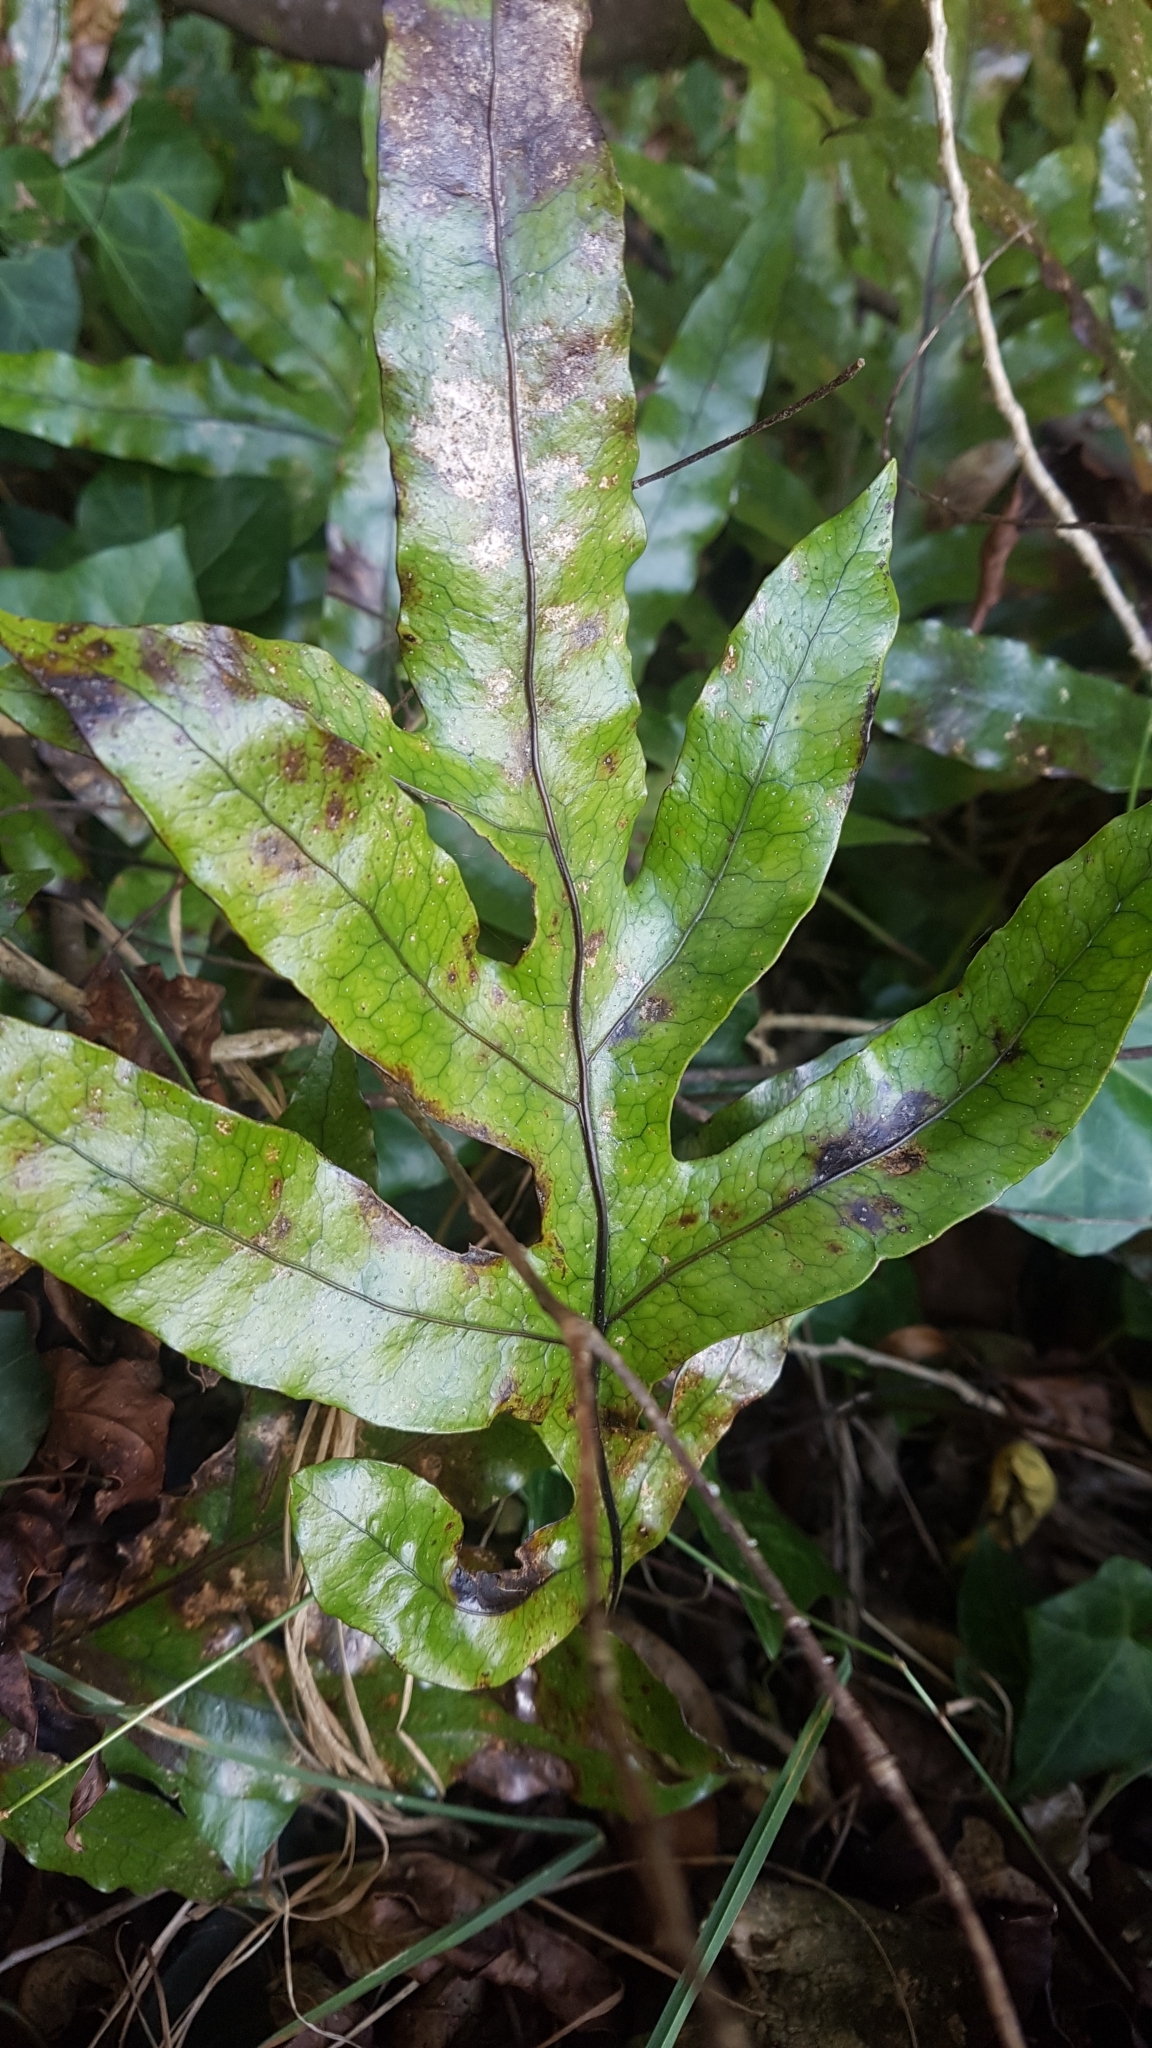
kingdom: Plantae
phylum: Tracheophyta
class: Polypodiopsida
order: Polypodiales
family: Polypodiaceae
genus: Lecanopteris
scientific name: Lecanopteris pustulata
